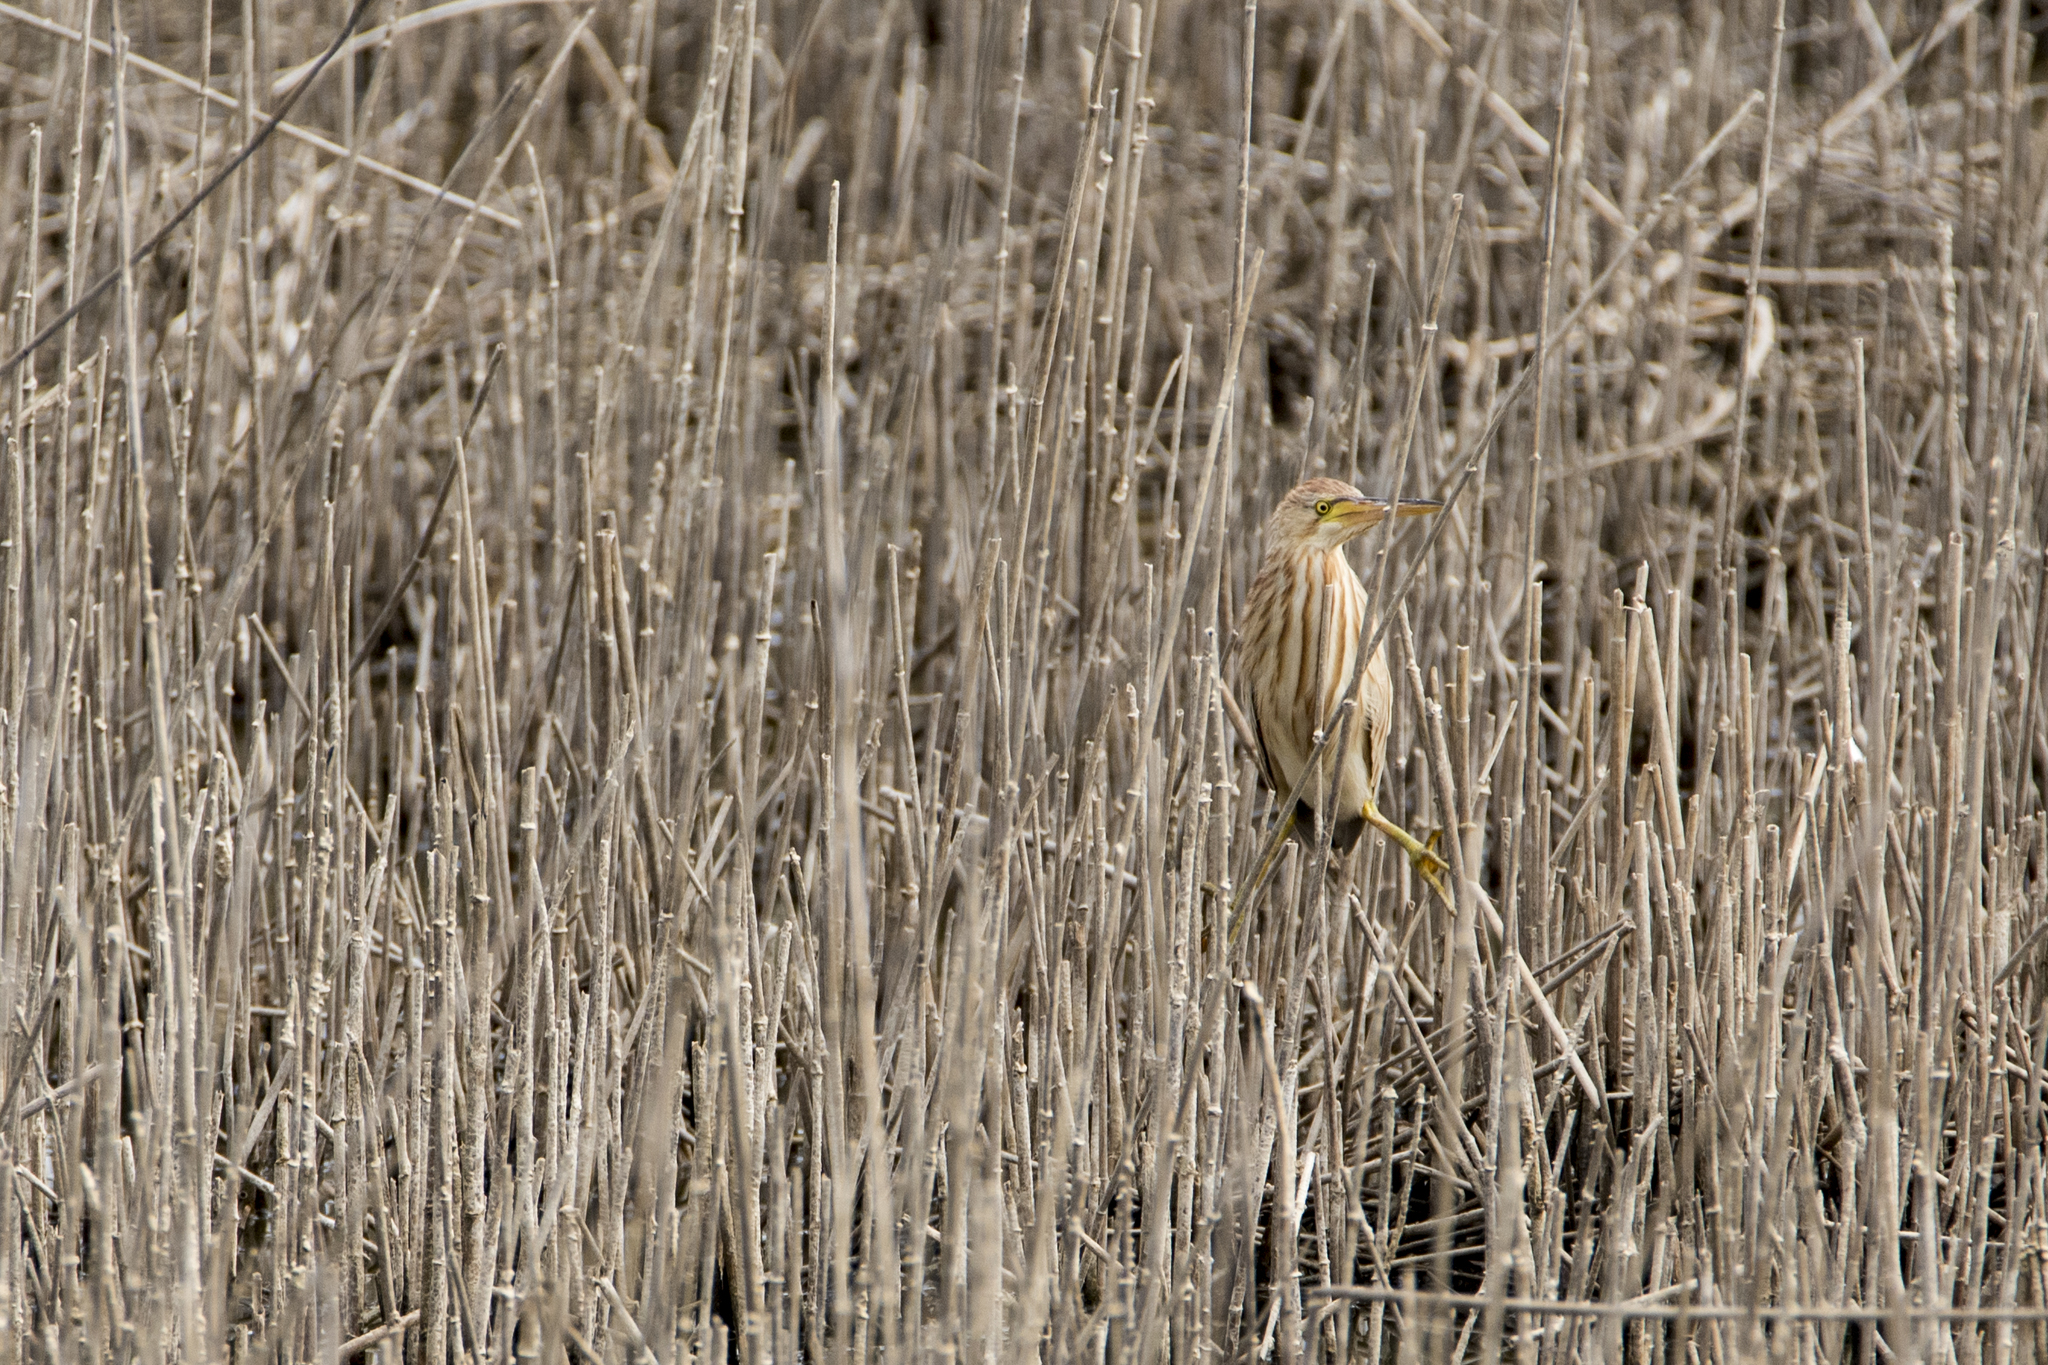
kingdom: Animalia
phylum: Chordata
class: Aves
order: Pelecaniformes
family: Ardeidae
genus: Ixobrychus
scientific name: Ixobrychus sinensis
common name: Yellow bittern
